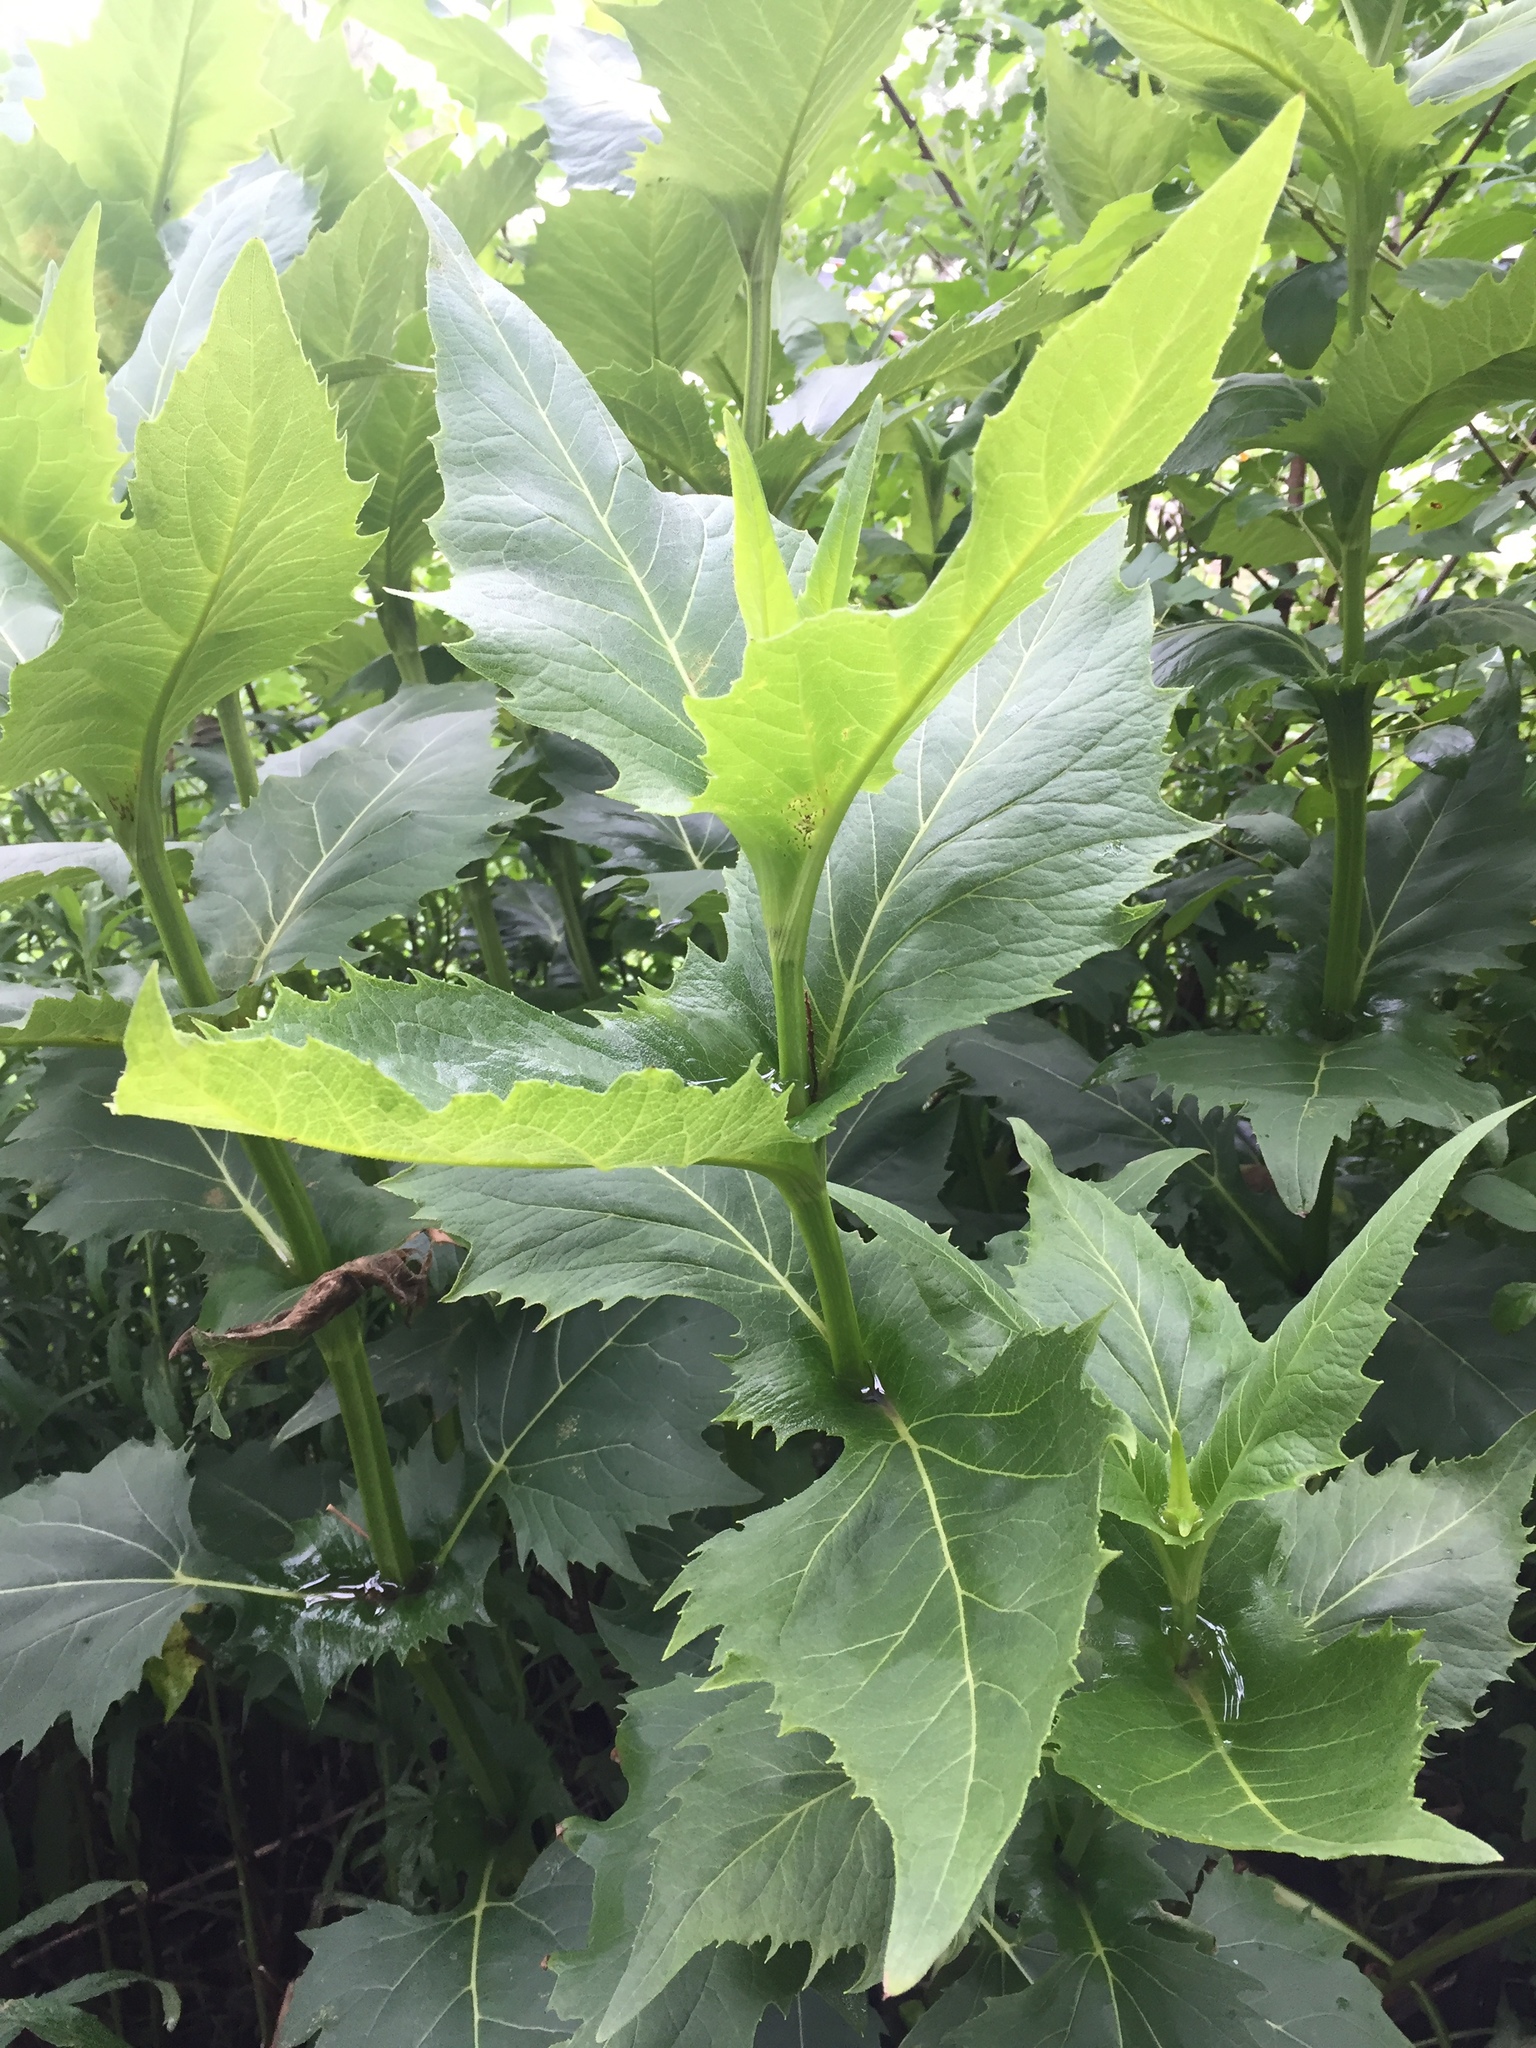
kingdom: Plantae
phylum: Tracheophyta
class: Magnoliopsida
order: Asterales
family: Asteraceae
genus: Silphium
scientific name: Silphium perfoliatum
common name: Cup-plant
